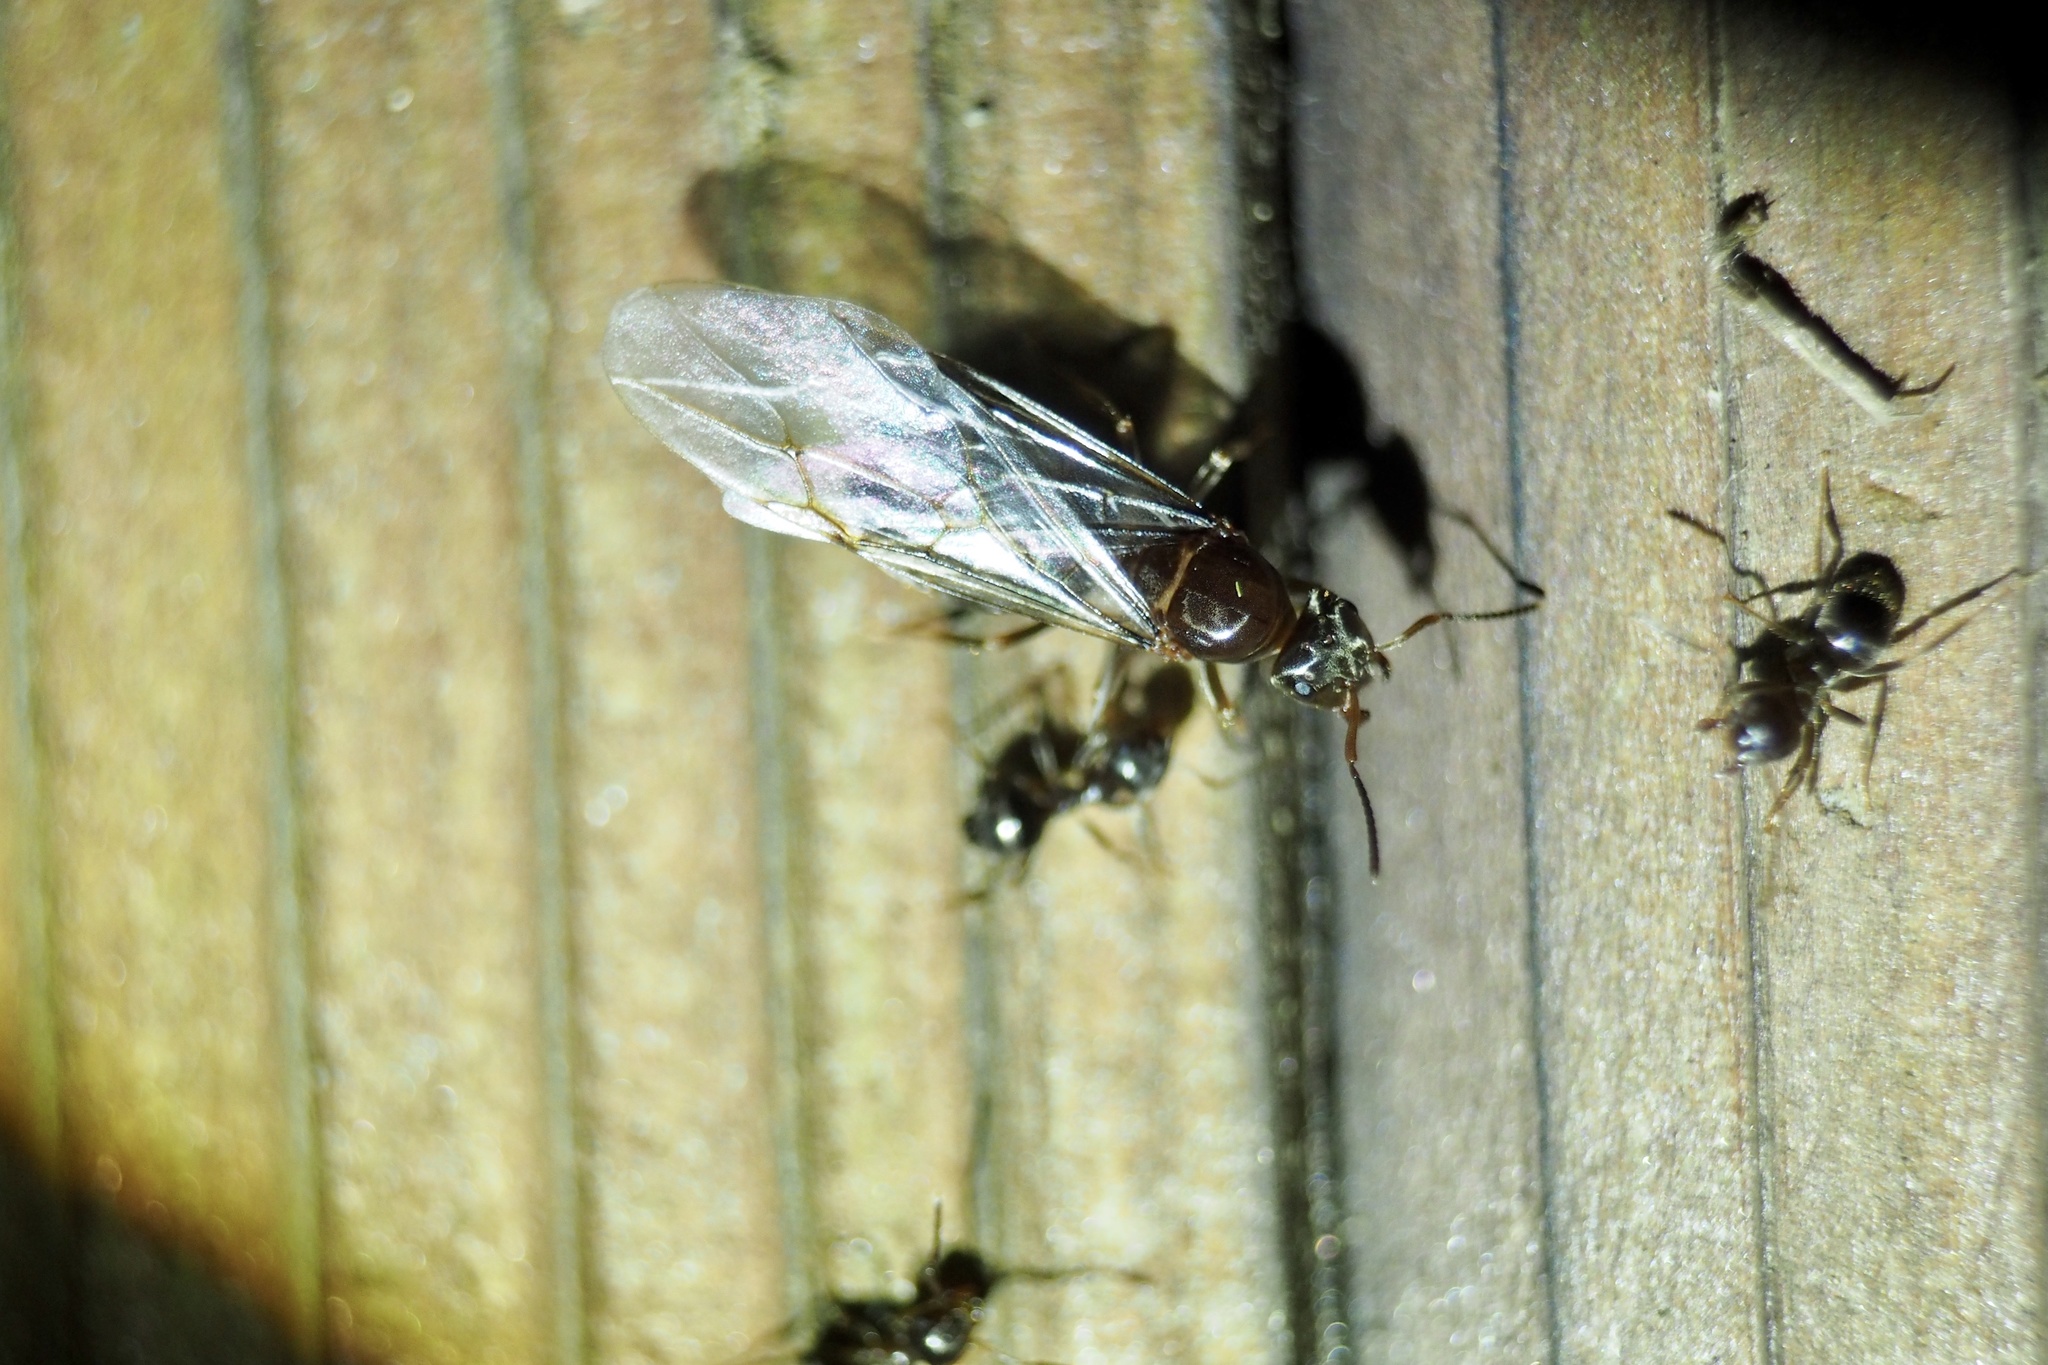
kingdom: Animalia
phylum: Arthropoda
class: Insecta
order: Hymenoptera
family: Formicidae
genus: Lasius
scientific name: Lasius hayashi
